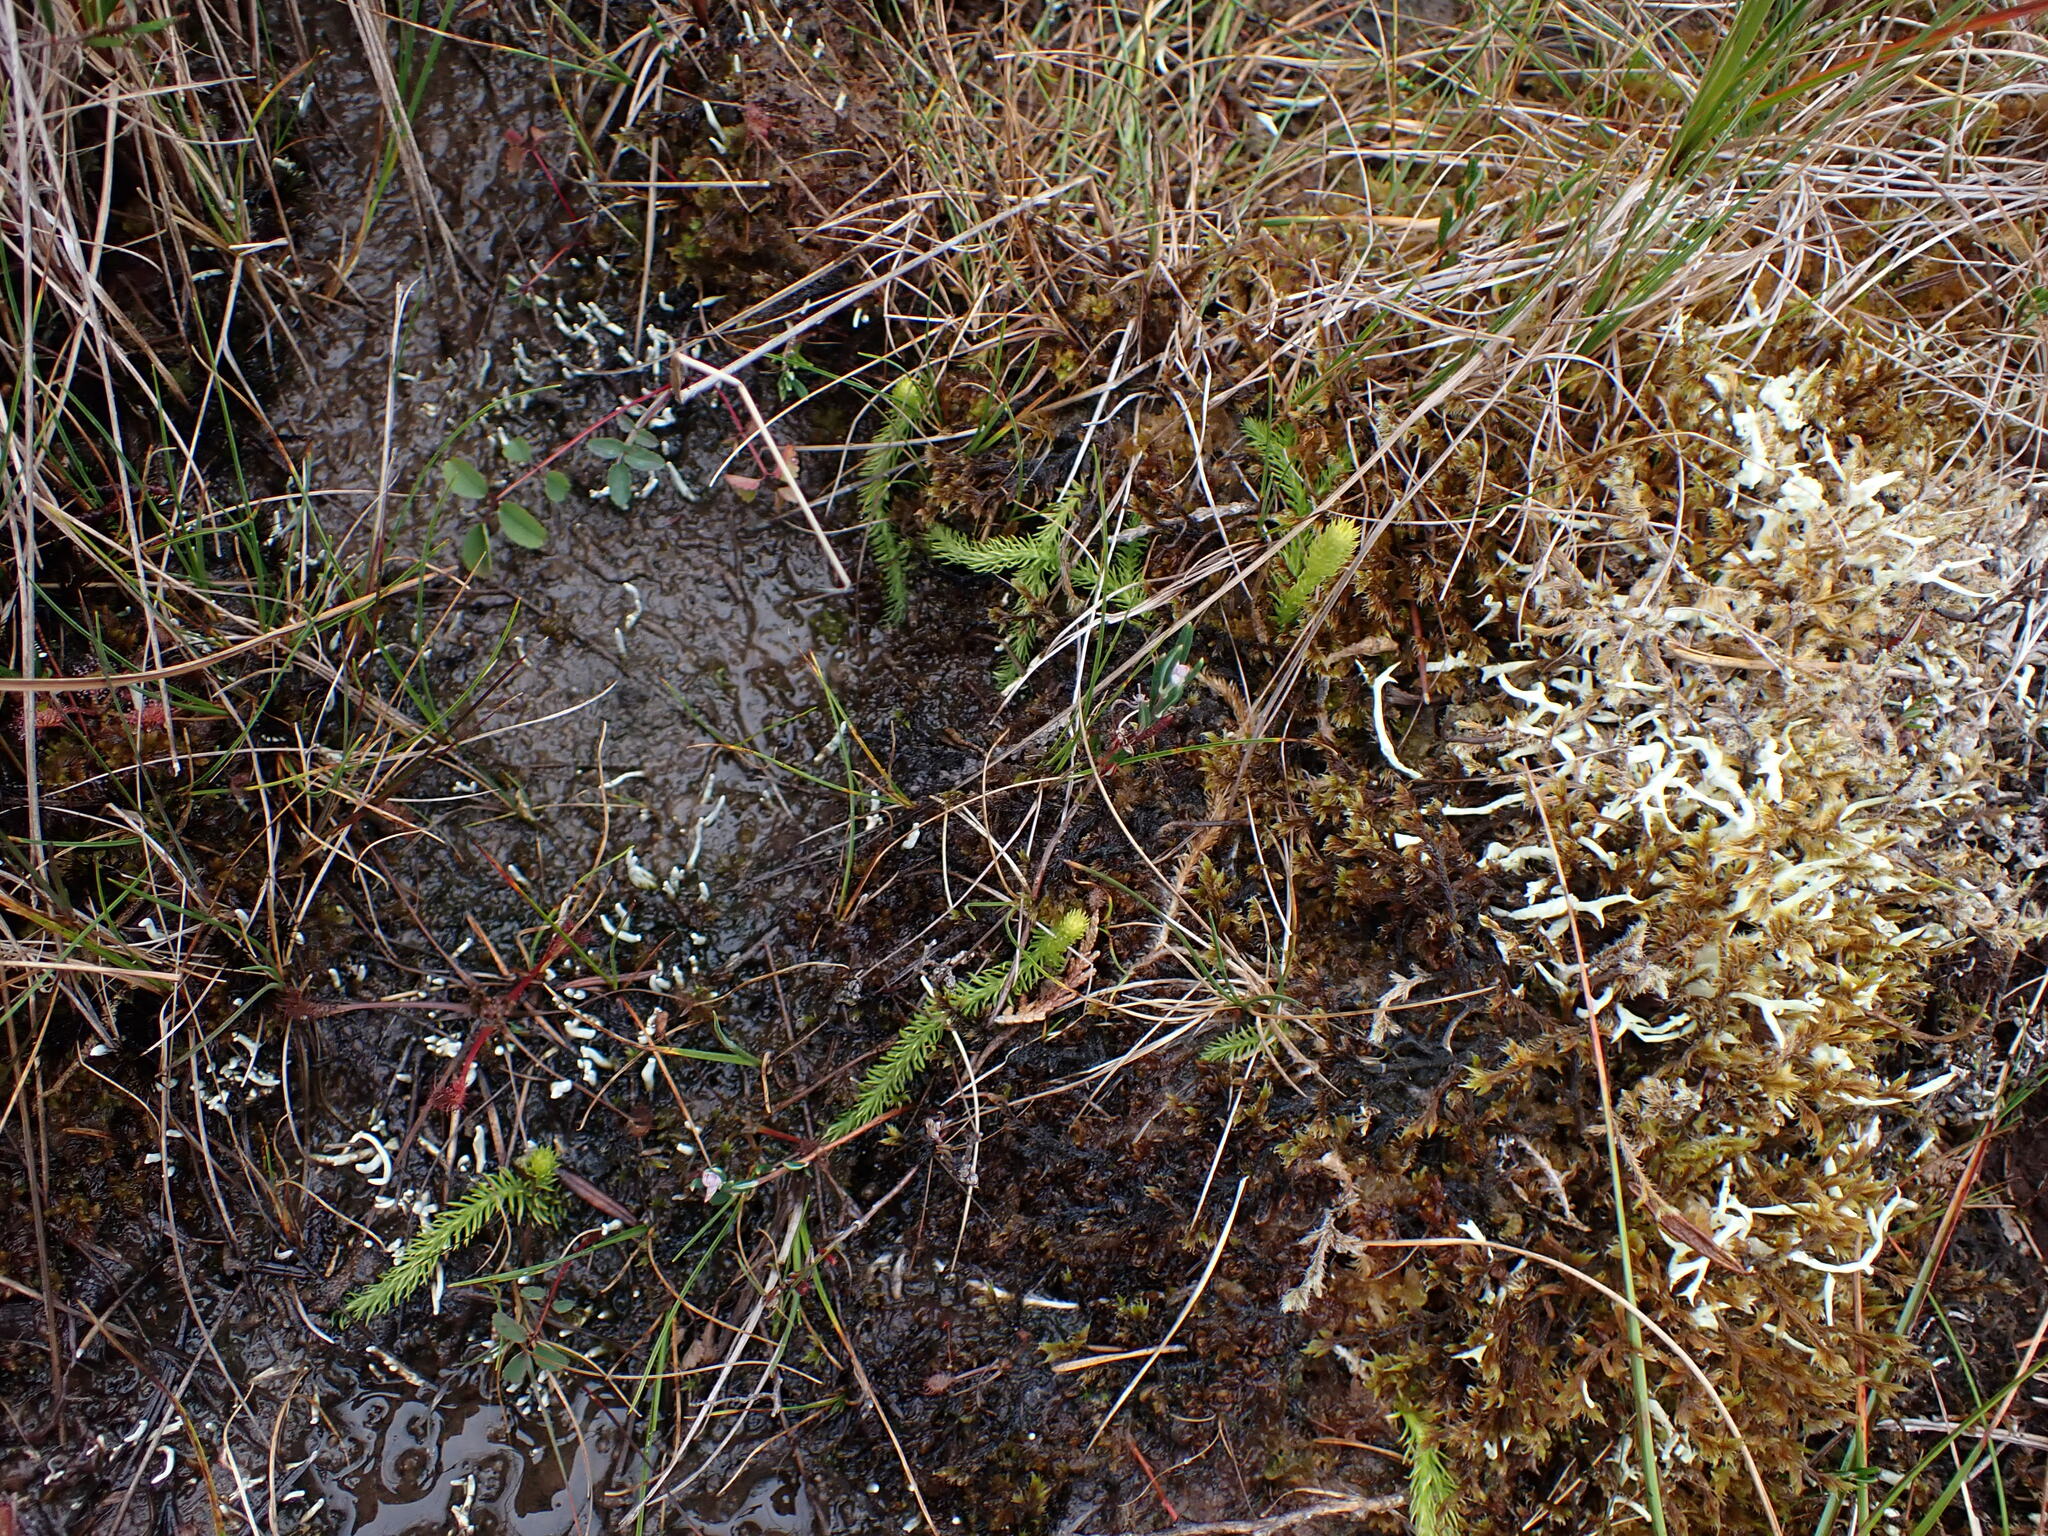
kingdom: Plantae
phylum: Tracheophyta
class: Lycopodiopsida
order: Lycopodiales
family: Lycopodiaceae
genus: Lycopodiella
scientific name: Lycopodiella inundata
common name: Marsh clubmoss
